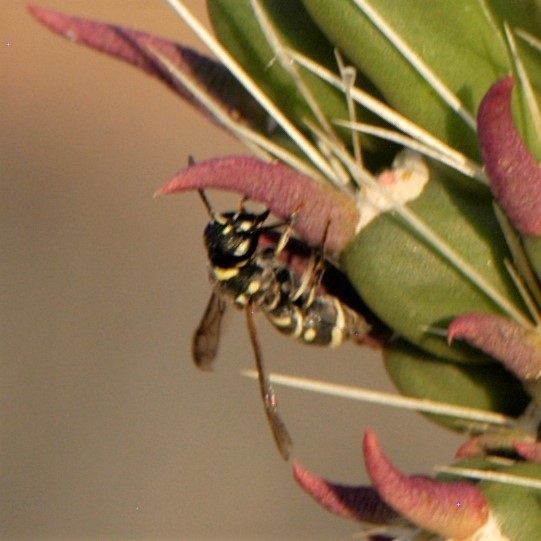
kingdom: Animalia
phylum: Arthropoda
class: Insecta
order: Hymenoptera
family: Eumenidae
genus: Parancistrocerus
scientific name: Parancistrocerus
